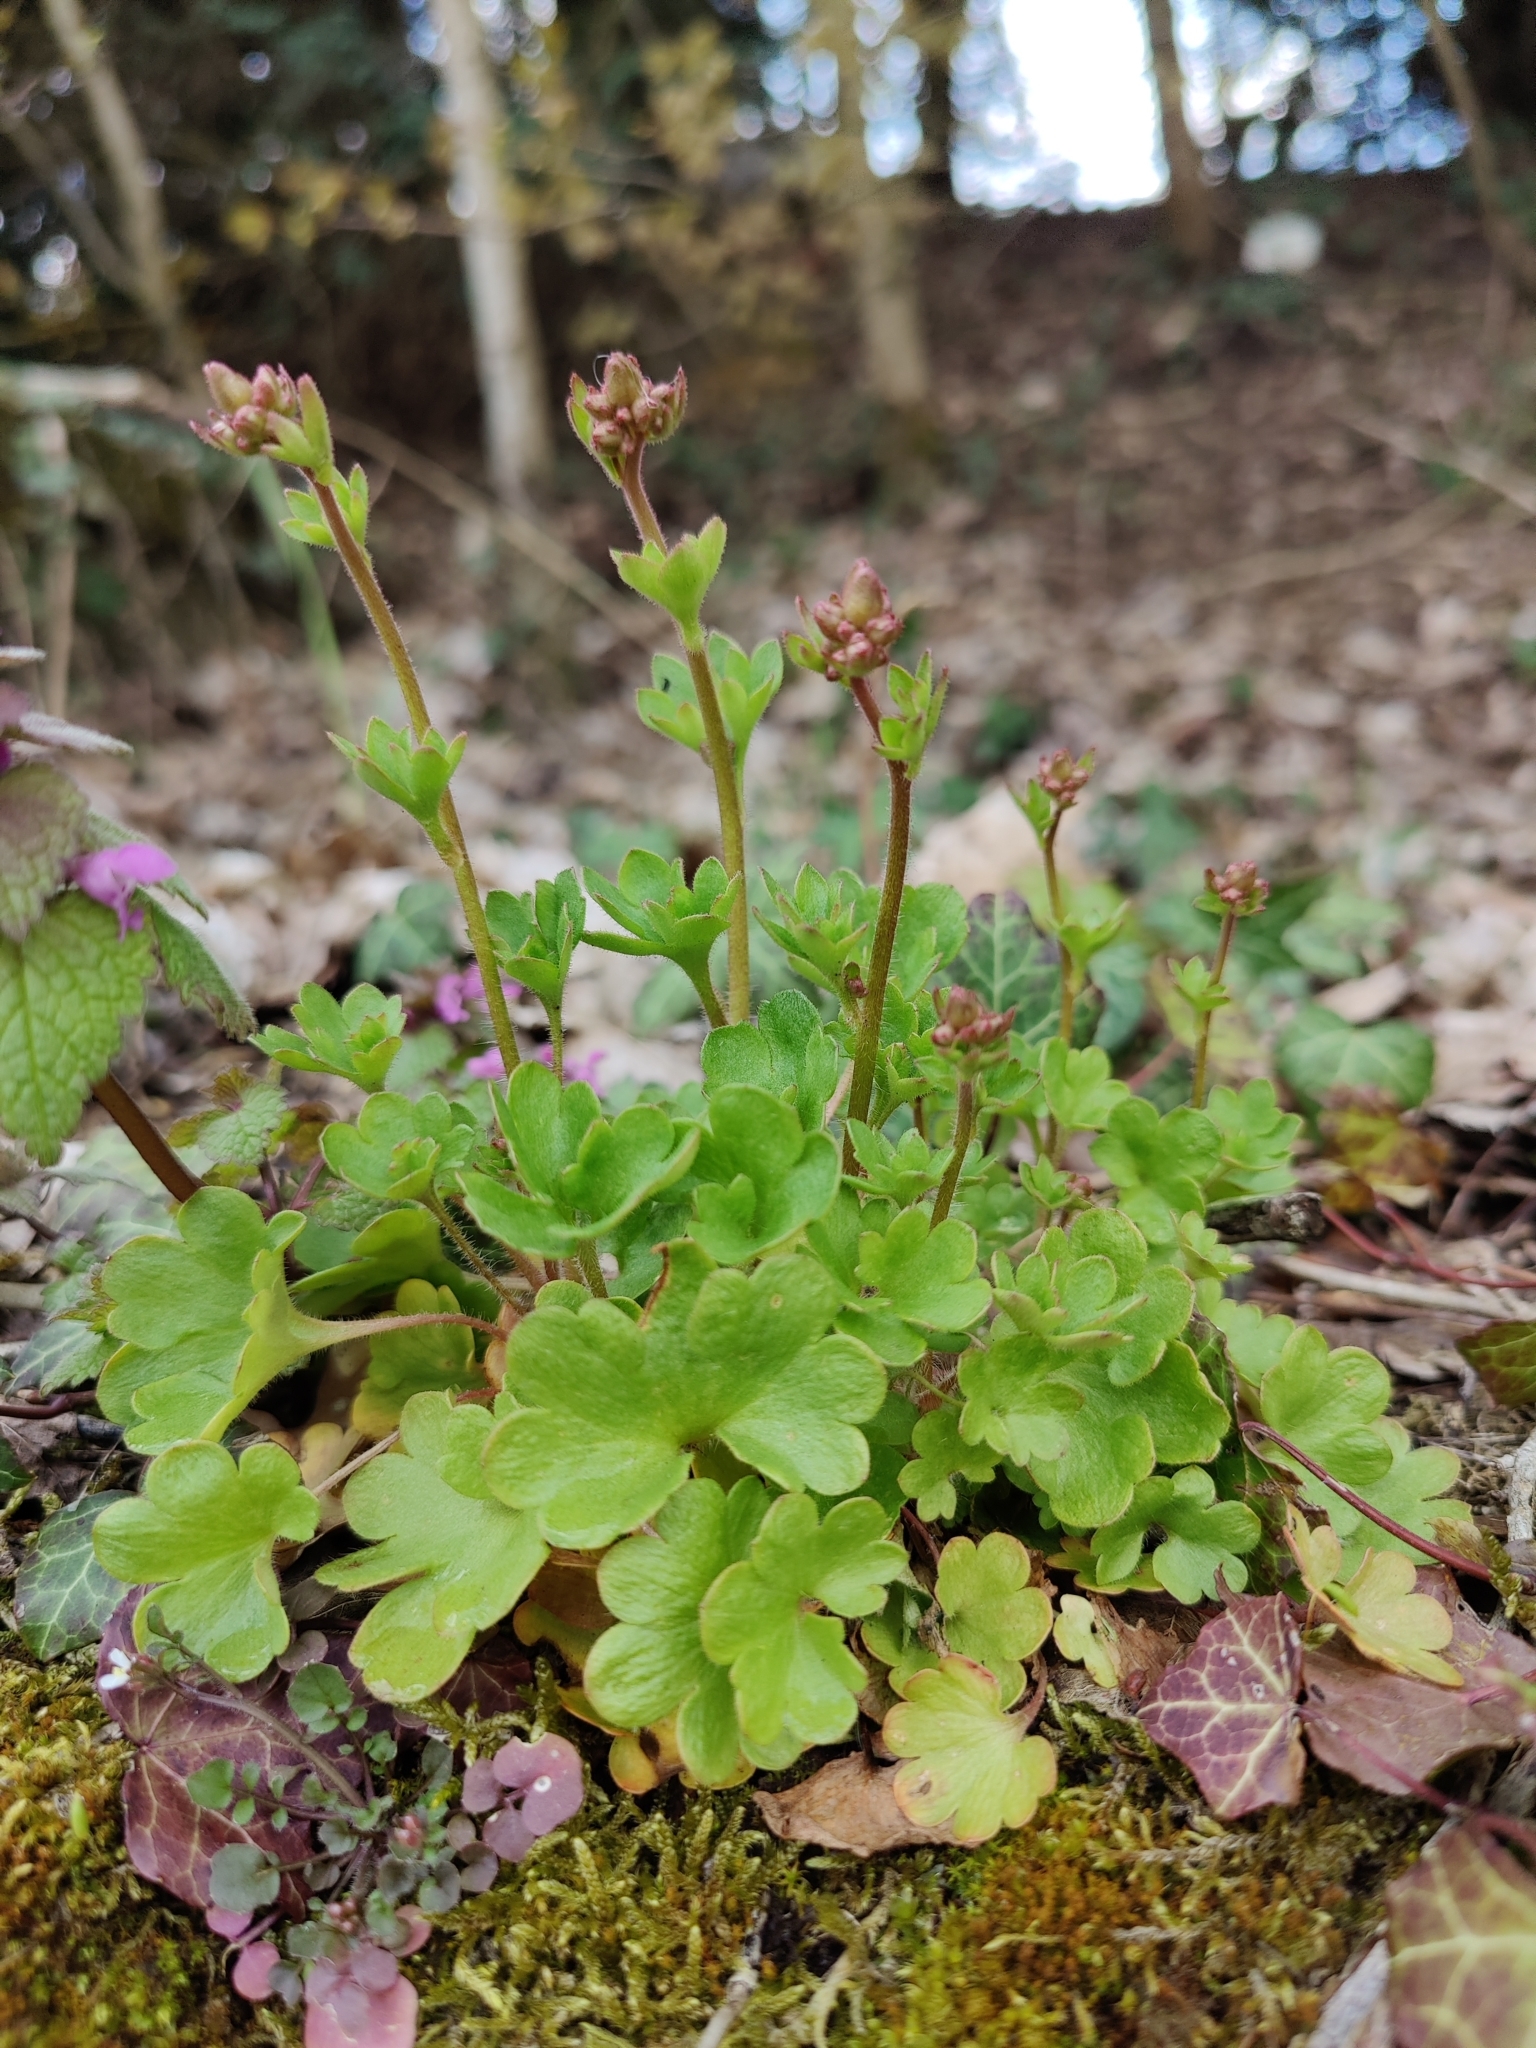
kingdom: Plantae
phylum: Tracheophyta
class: Magnoliopsida
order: Saxifragales
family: Saxifragaceae
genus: Saxifraga
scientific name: Saxifraga granulata
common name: Meadow saxifrage
